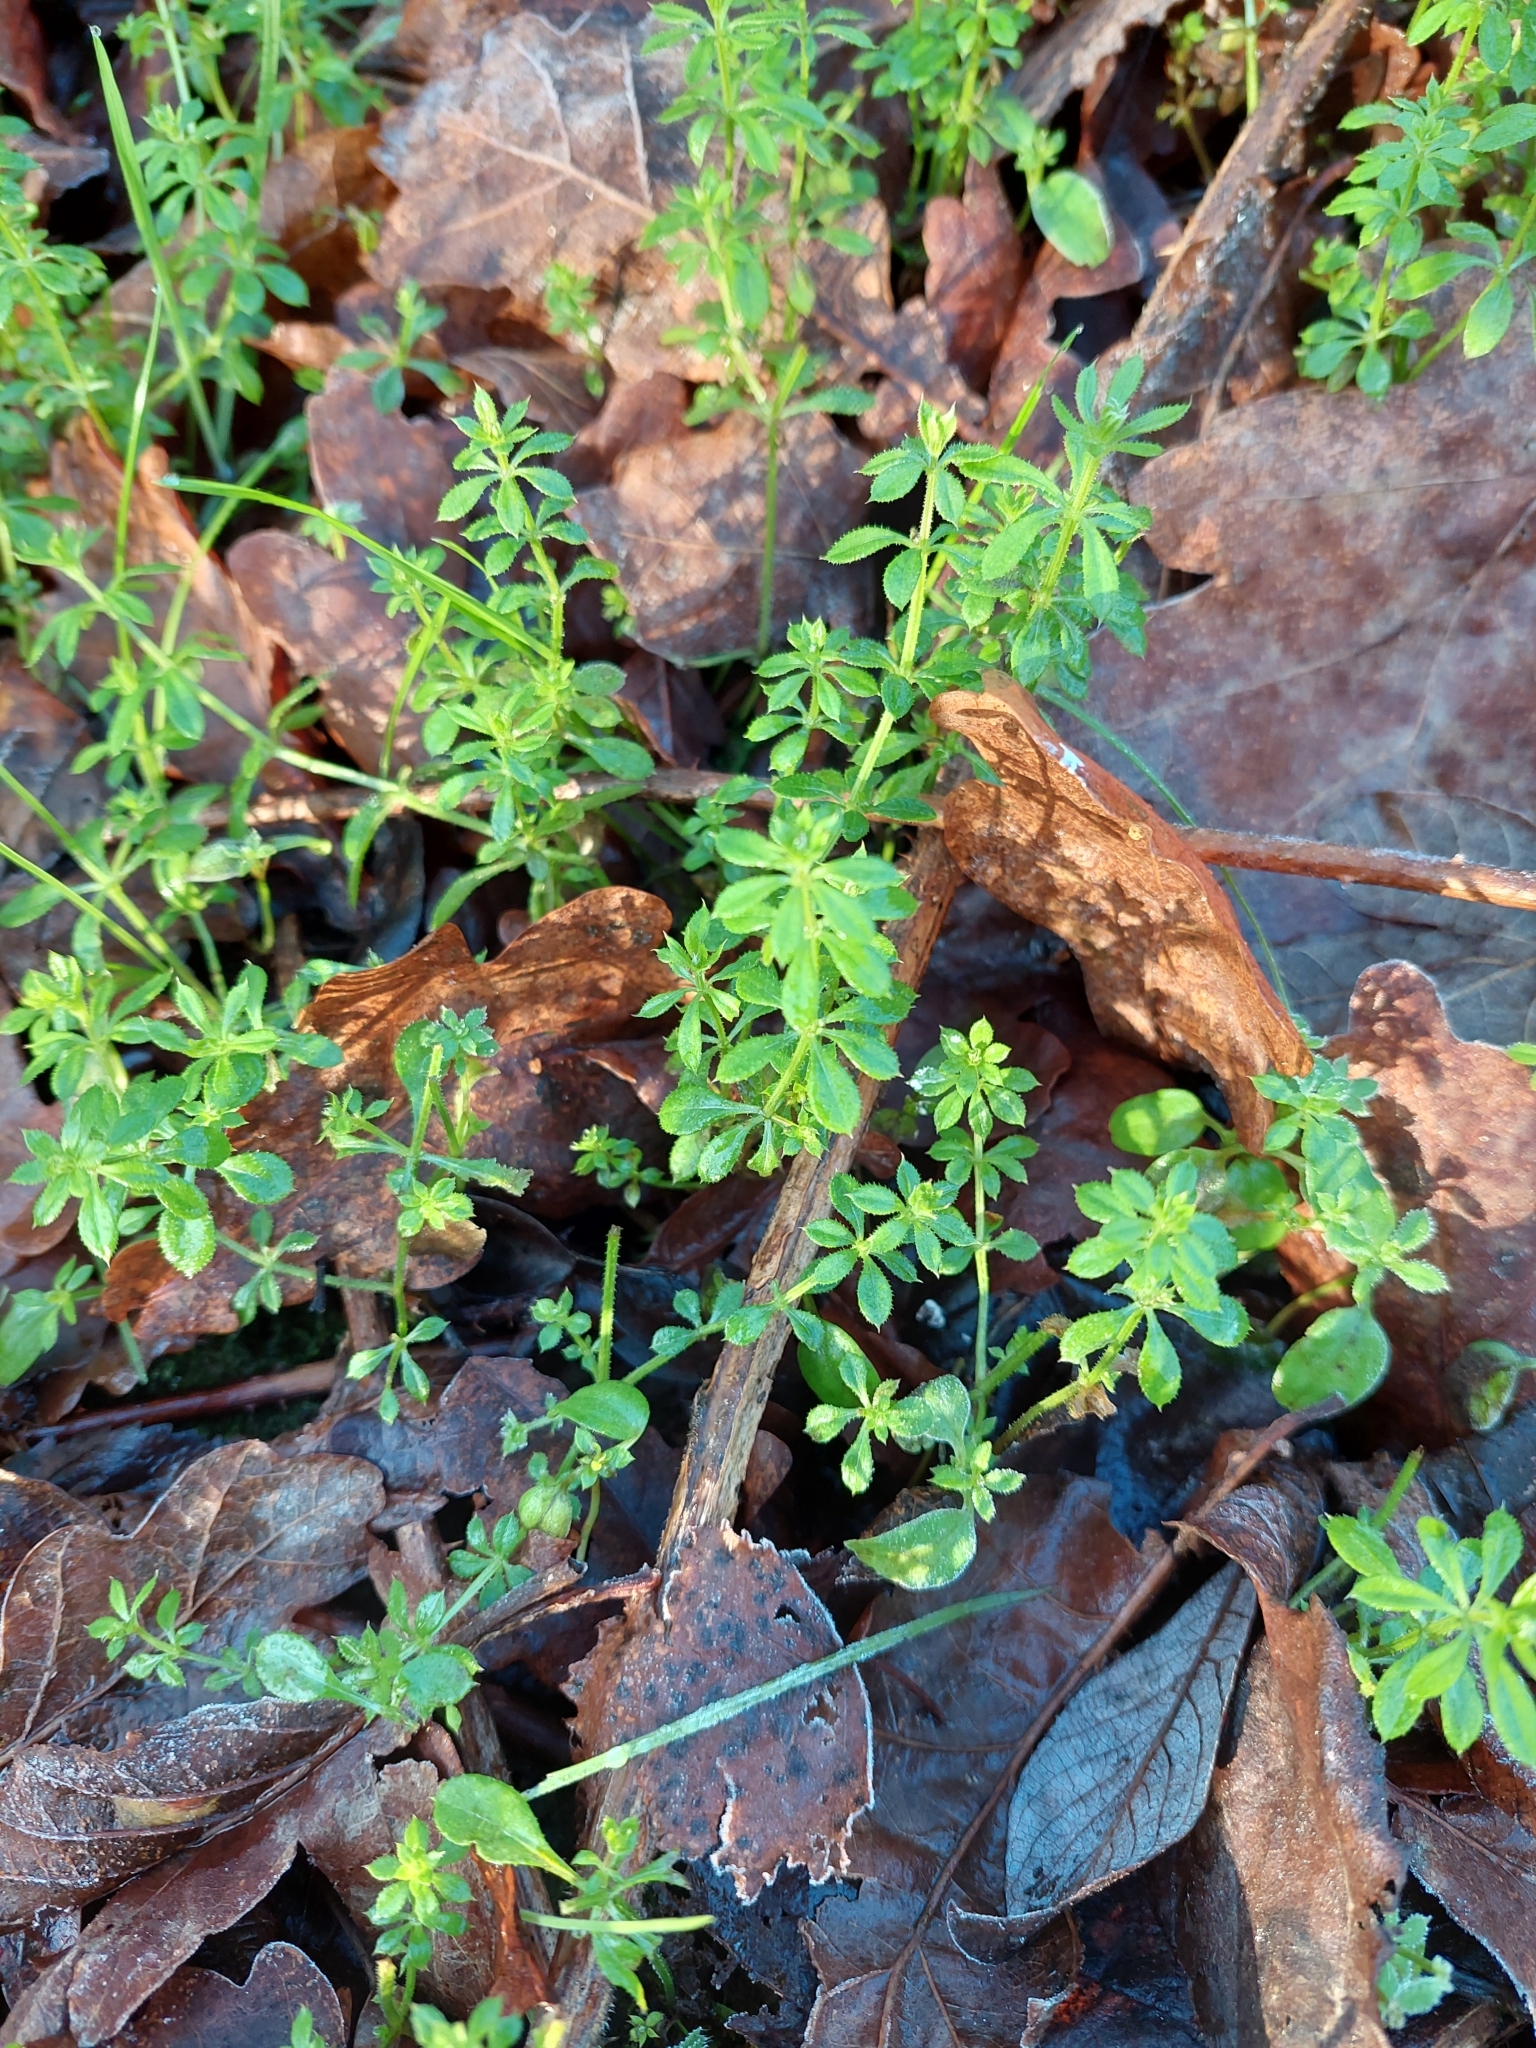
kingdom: Plantae
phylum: Tracheophyta
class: Magnoliopsida
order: Gentianales
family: Rubiaceae
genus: Galium
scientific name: Galium aparine
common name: Cleavers
